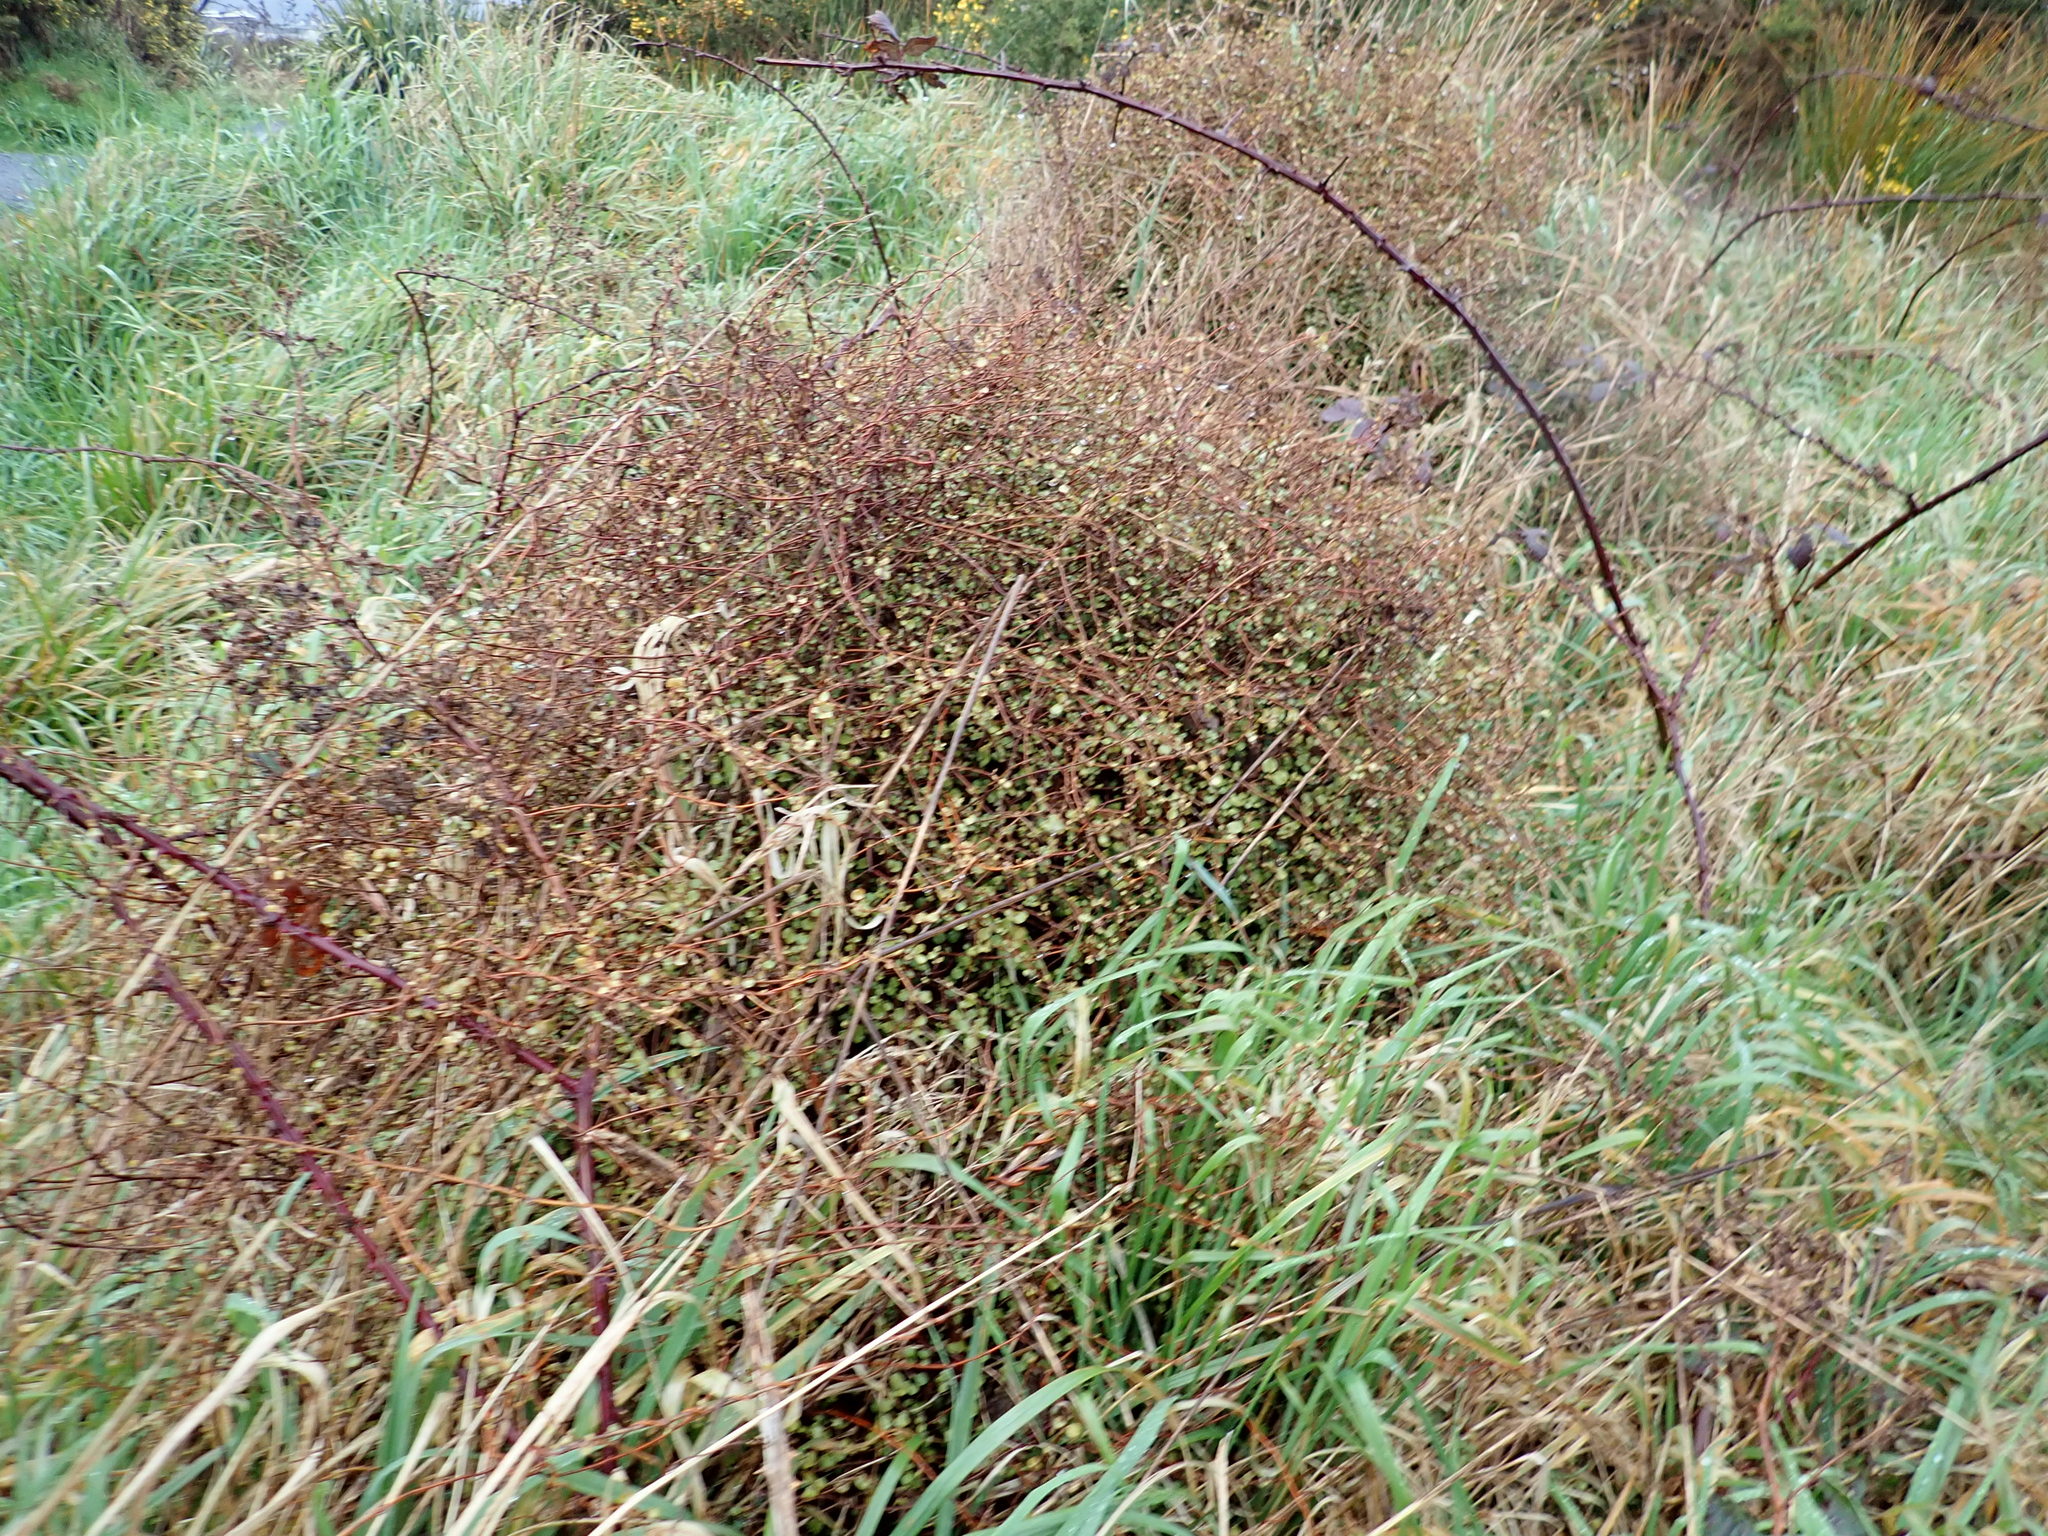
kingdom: Plantae
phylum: Tracheophyta
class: Magnoliopsida
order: Caryophyllales
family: Polygonaceae
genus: Muehlenbeckia
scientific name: Muehlenbeckia complexa
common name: Wireplant
